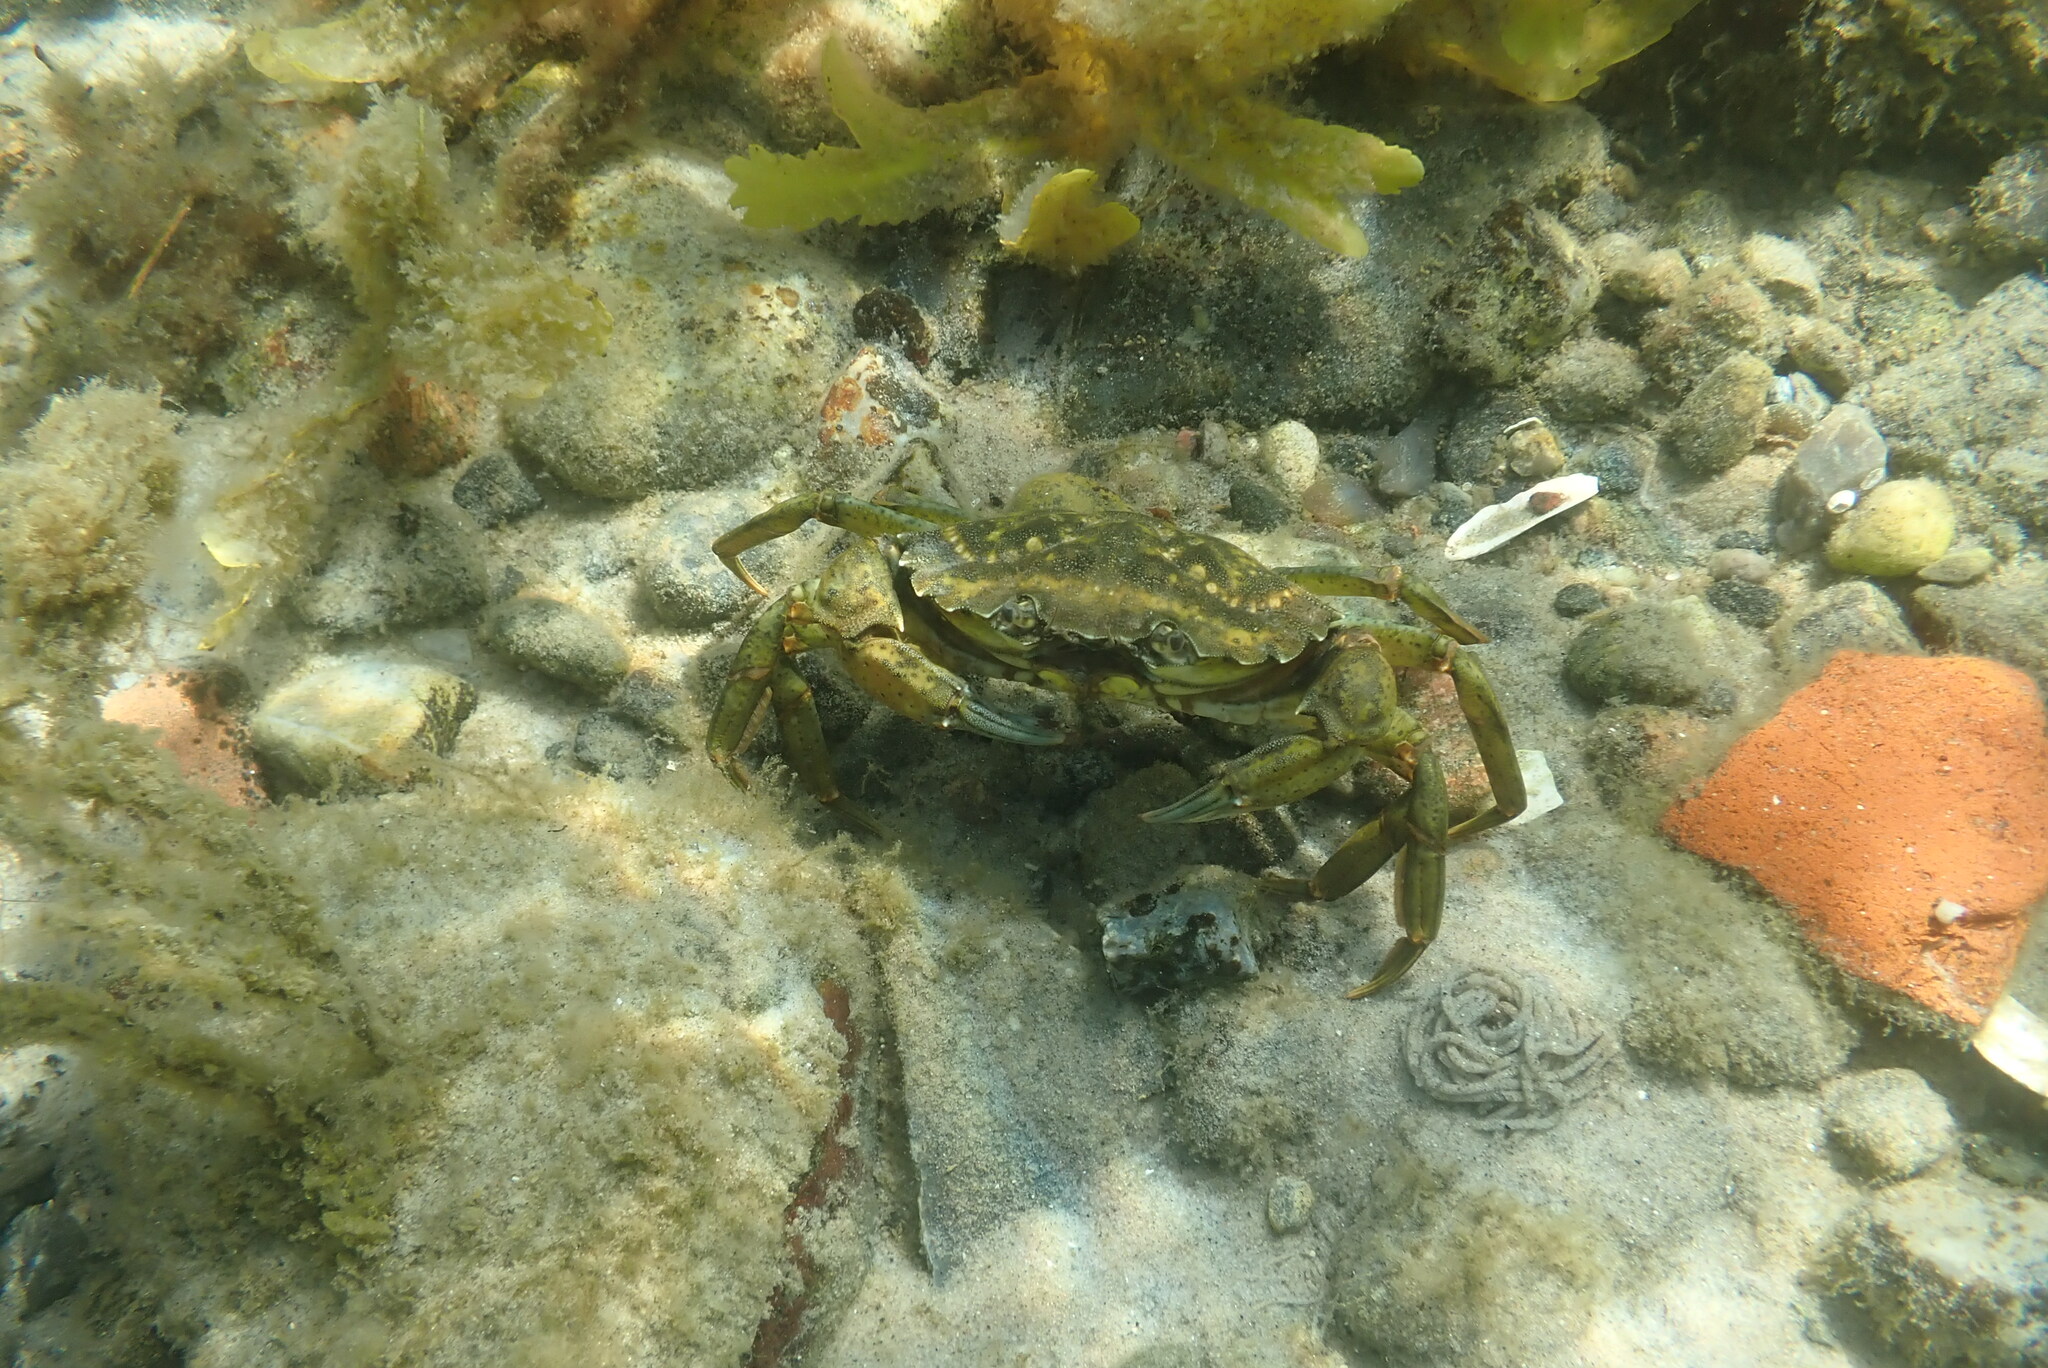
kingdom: Animalia
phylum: Arthropoda
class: Malacostraca
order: Decapoda
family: Carcinidae
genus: Carcinus
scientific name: Carcinus maenas
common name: European green crab
